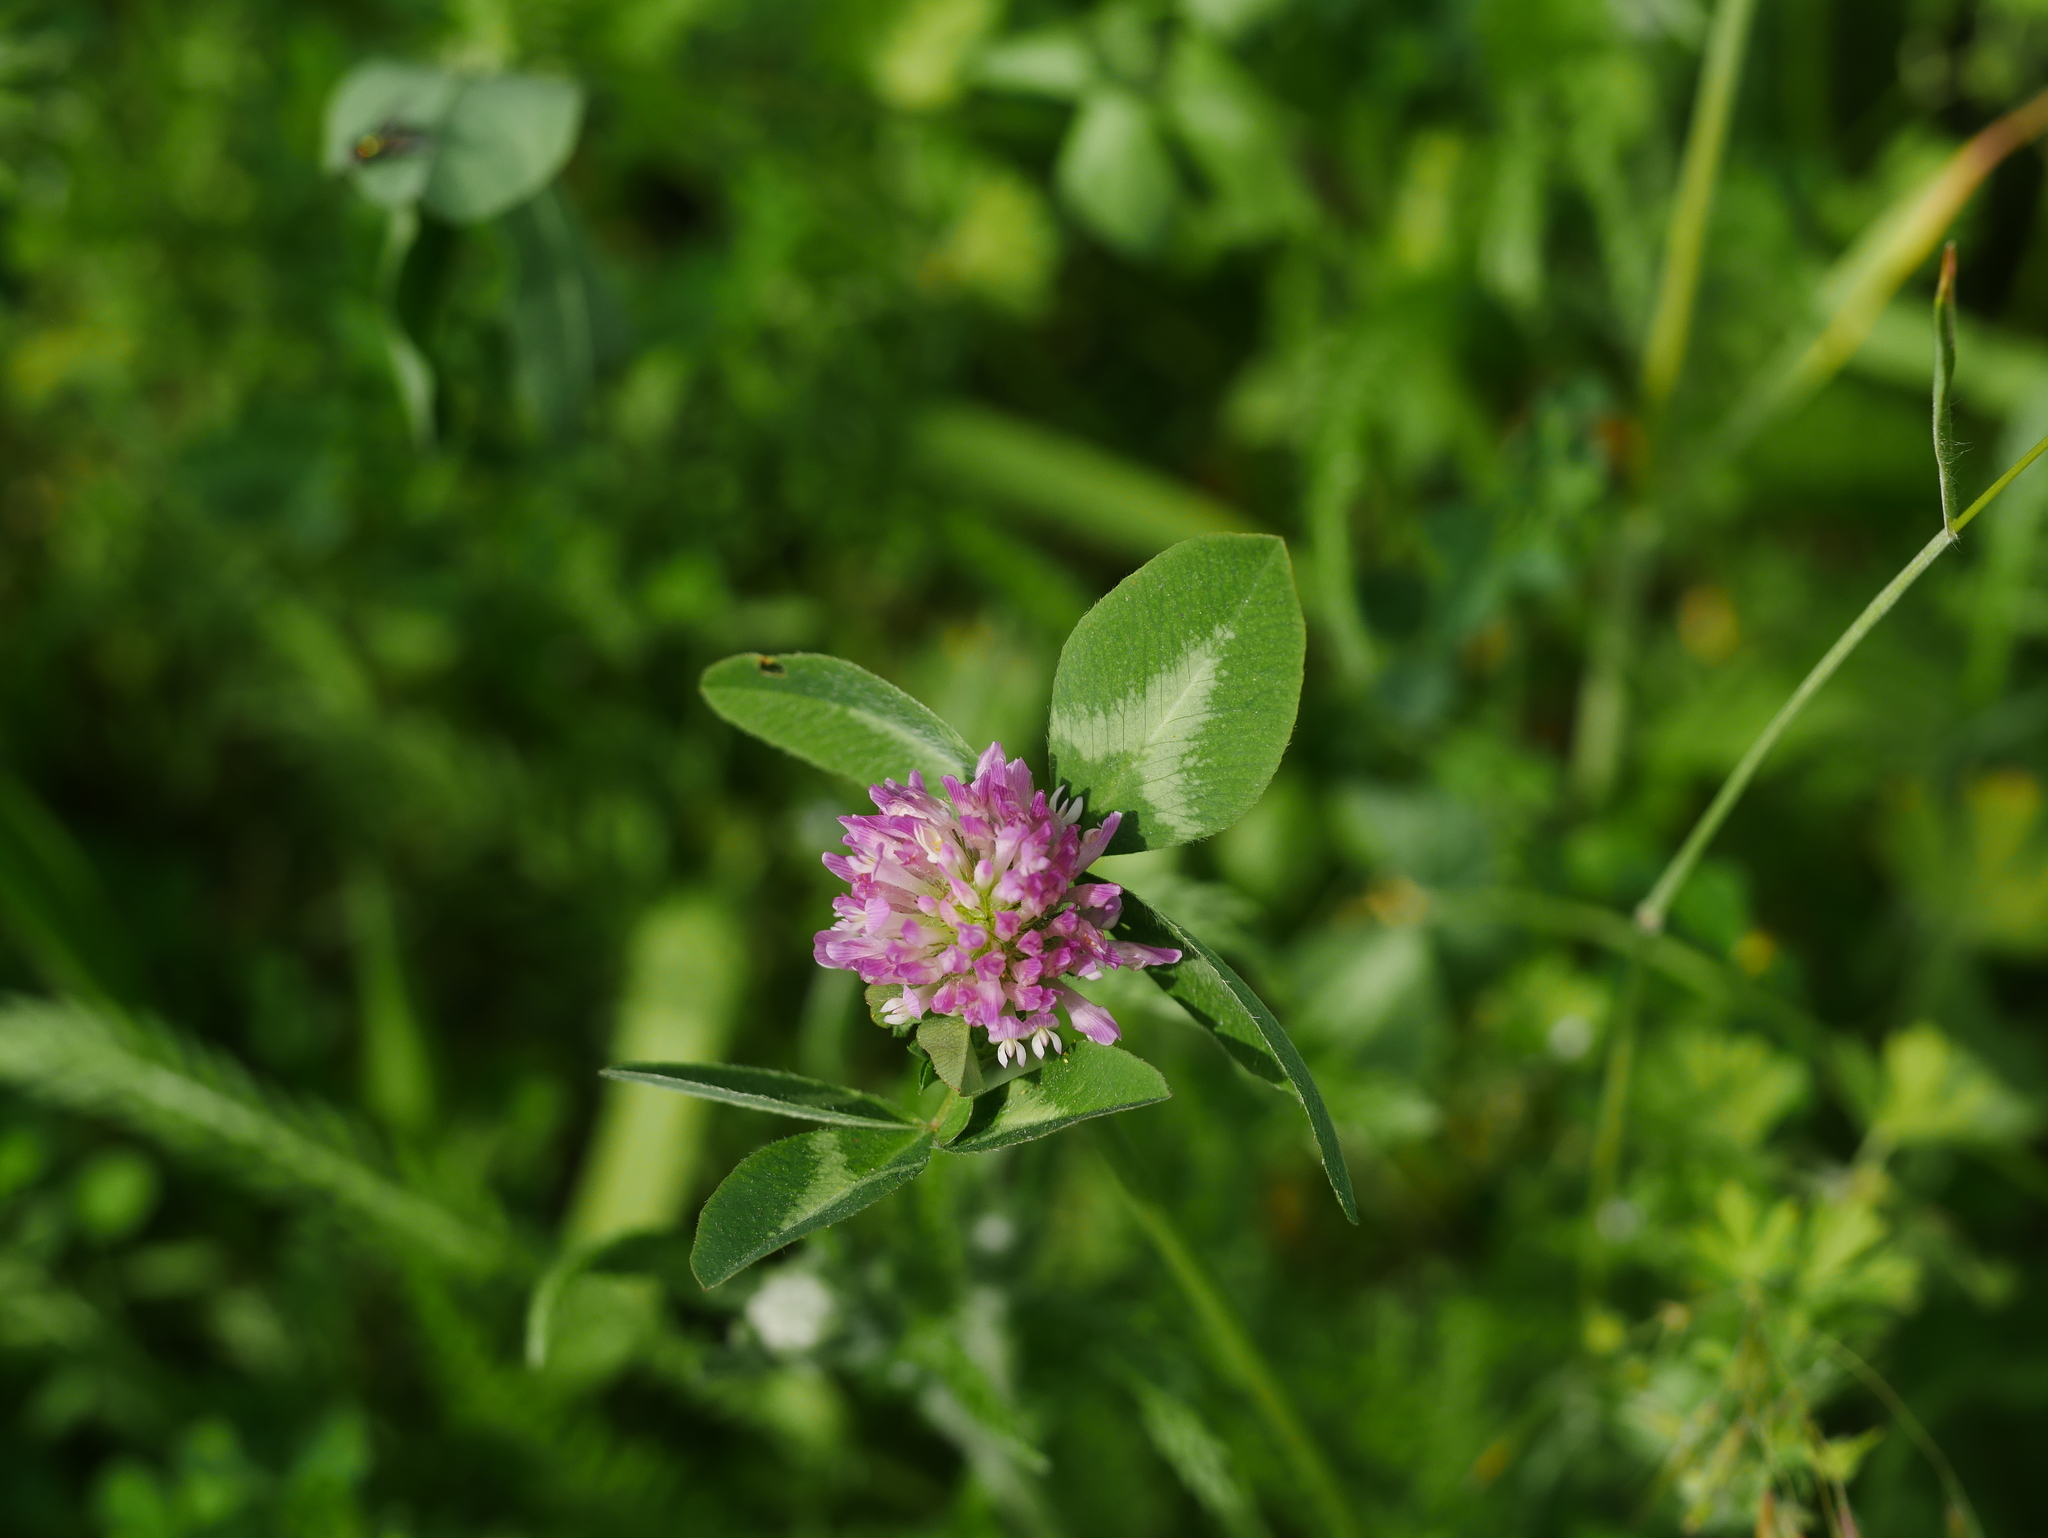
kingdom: Plantae
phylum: Tracheophyta
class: Magnoliopsida
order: Fabales
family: Fabaceae
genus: Trifolium
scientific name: Trifolium pratense
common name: Red clover
